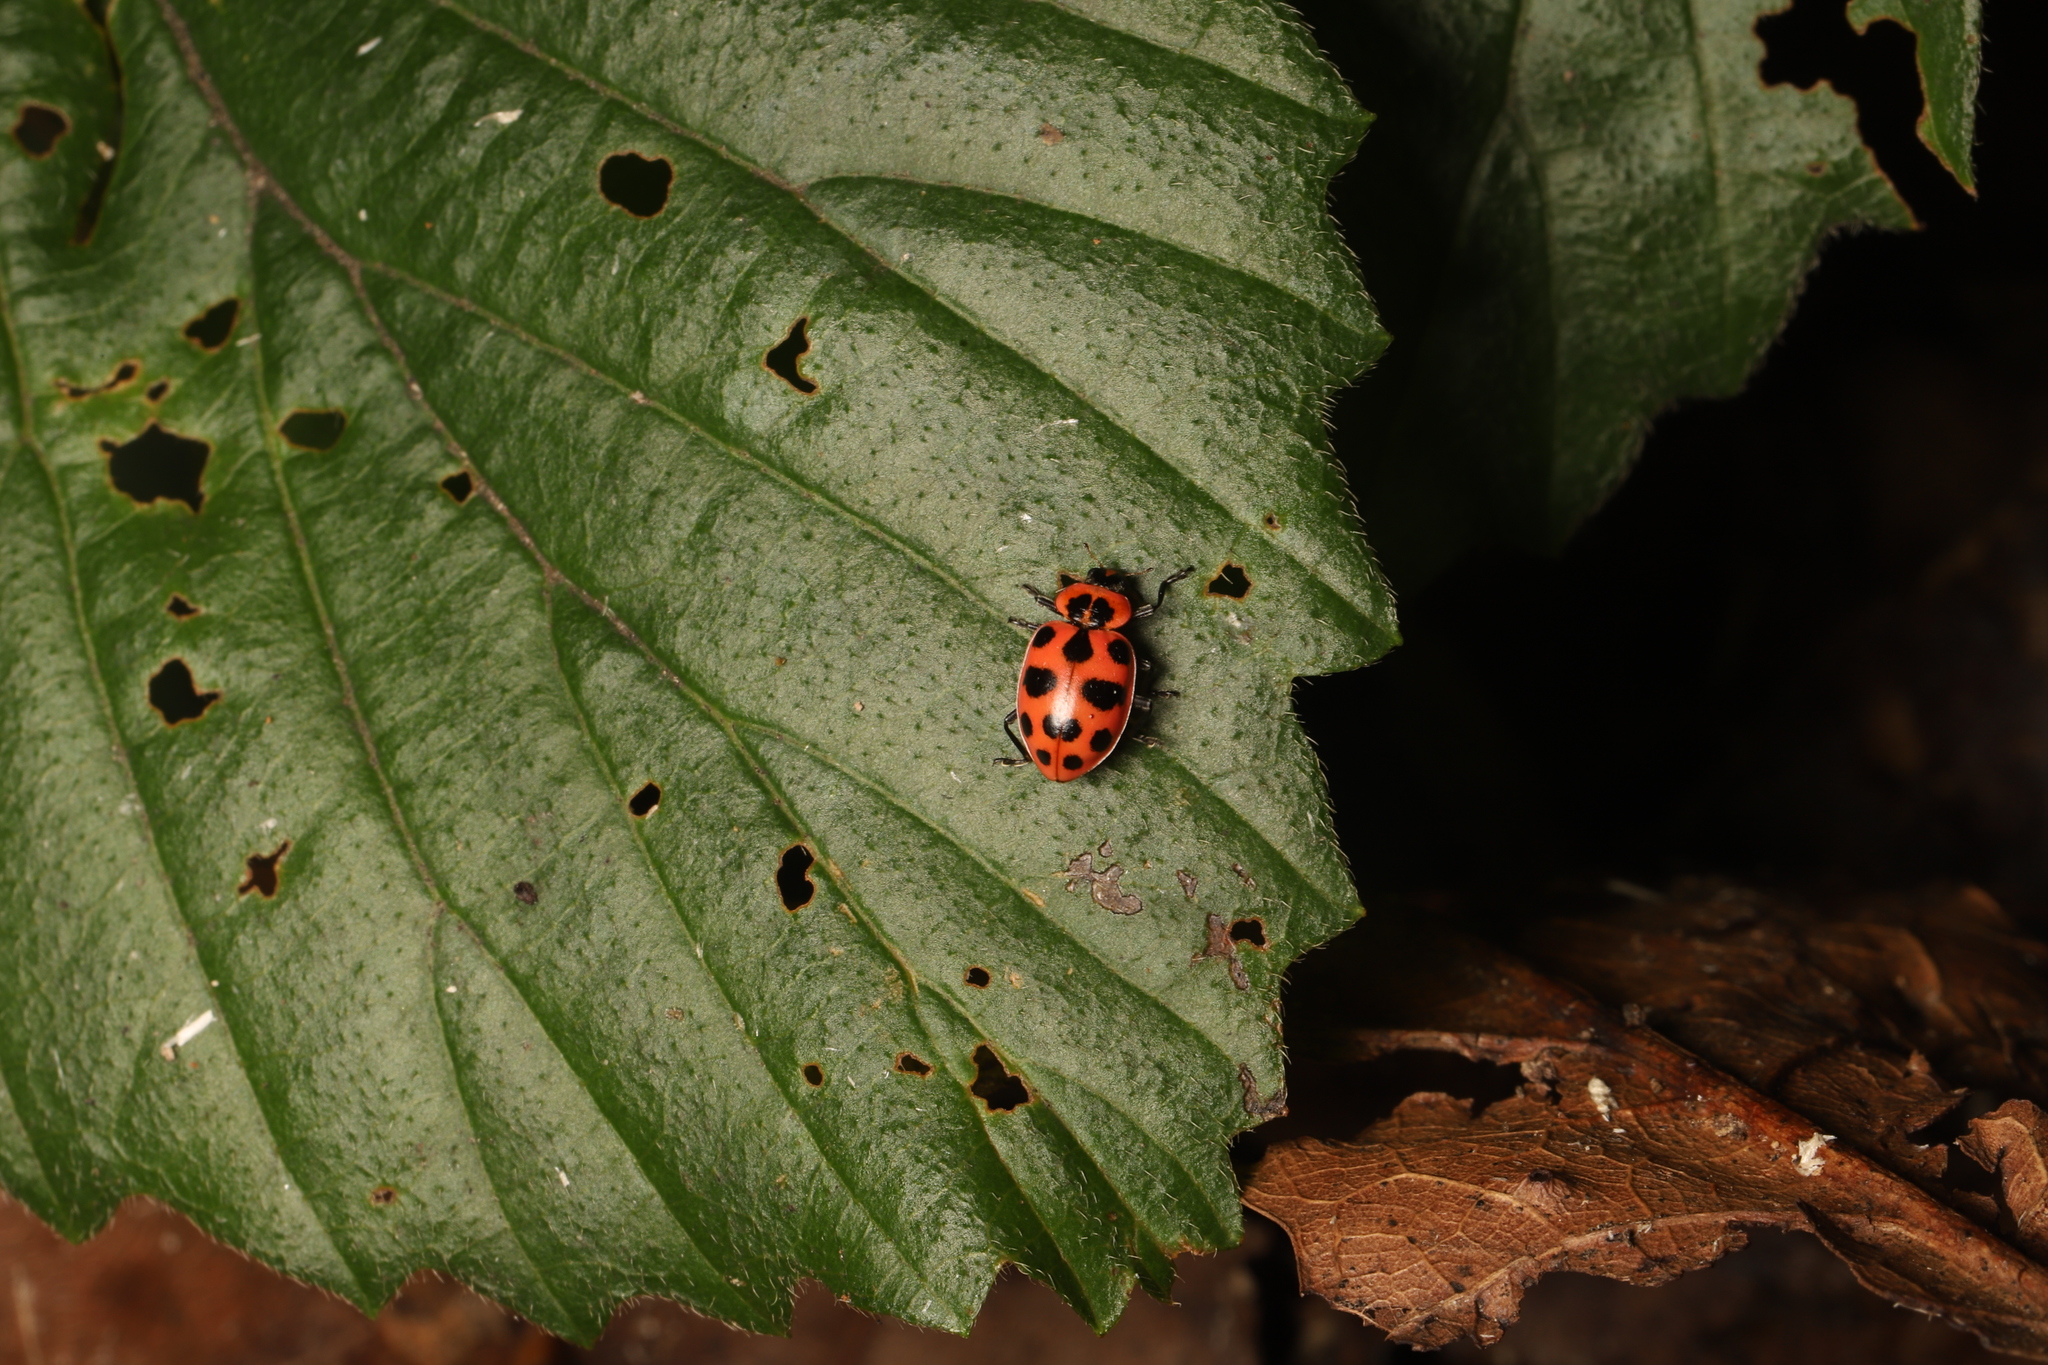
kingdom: Animalia
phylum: Arthropoda
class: Insecta
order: Coleoptera
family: Coccinellidae
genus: Coleomegilla
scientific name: Coleomegilla maculata
